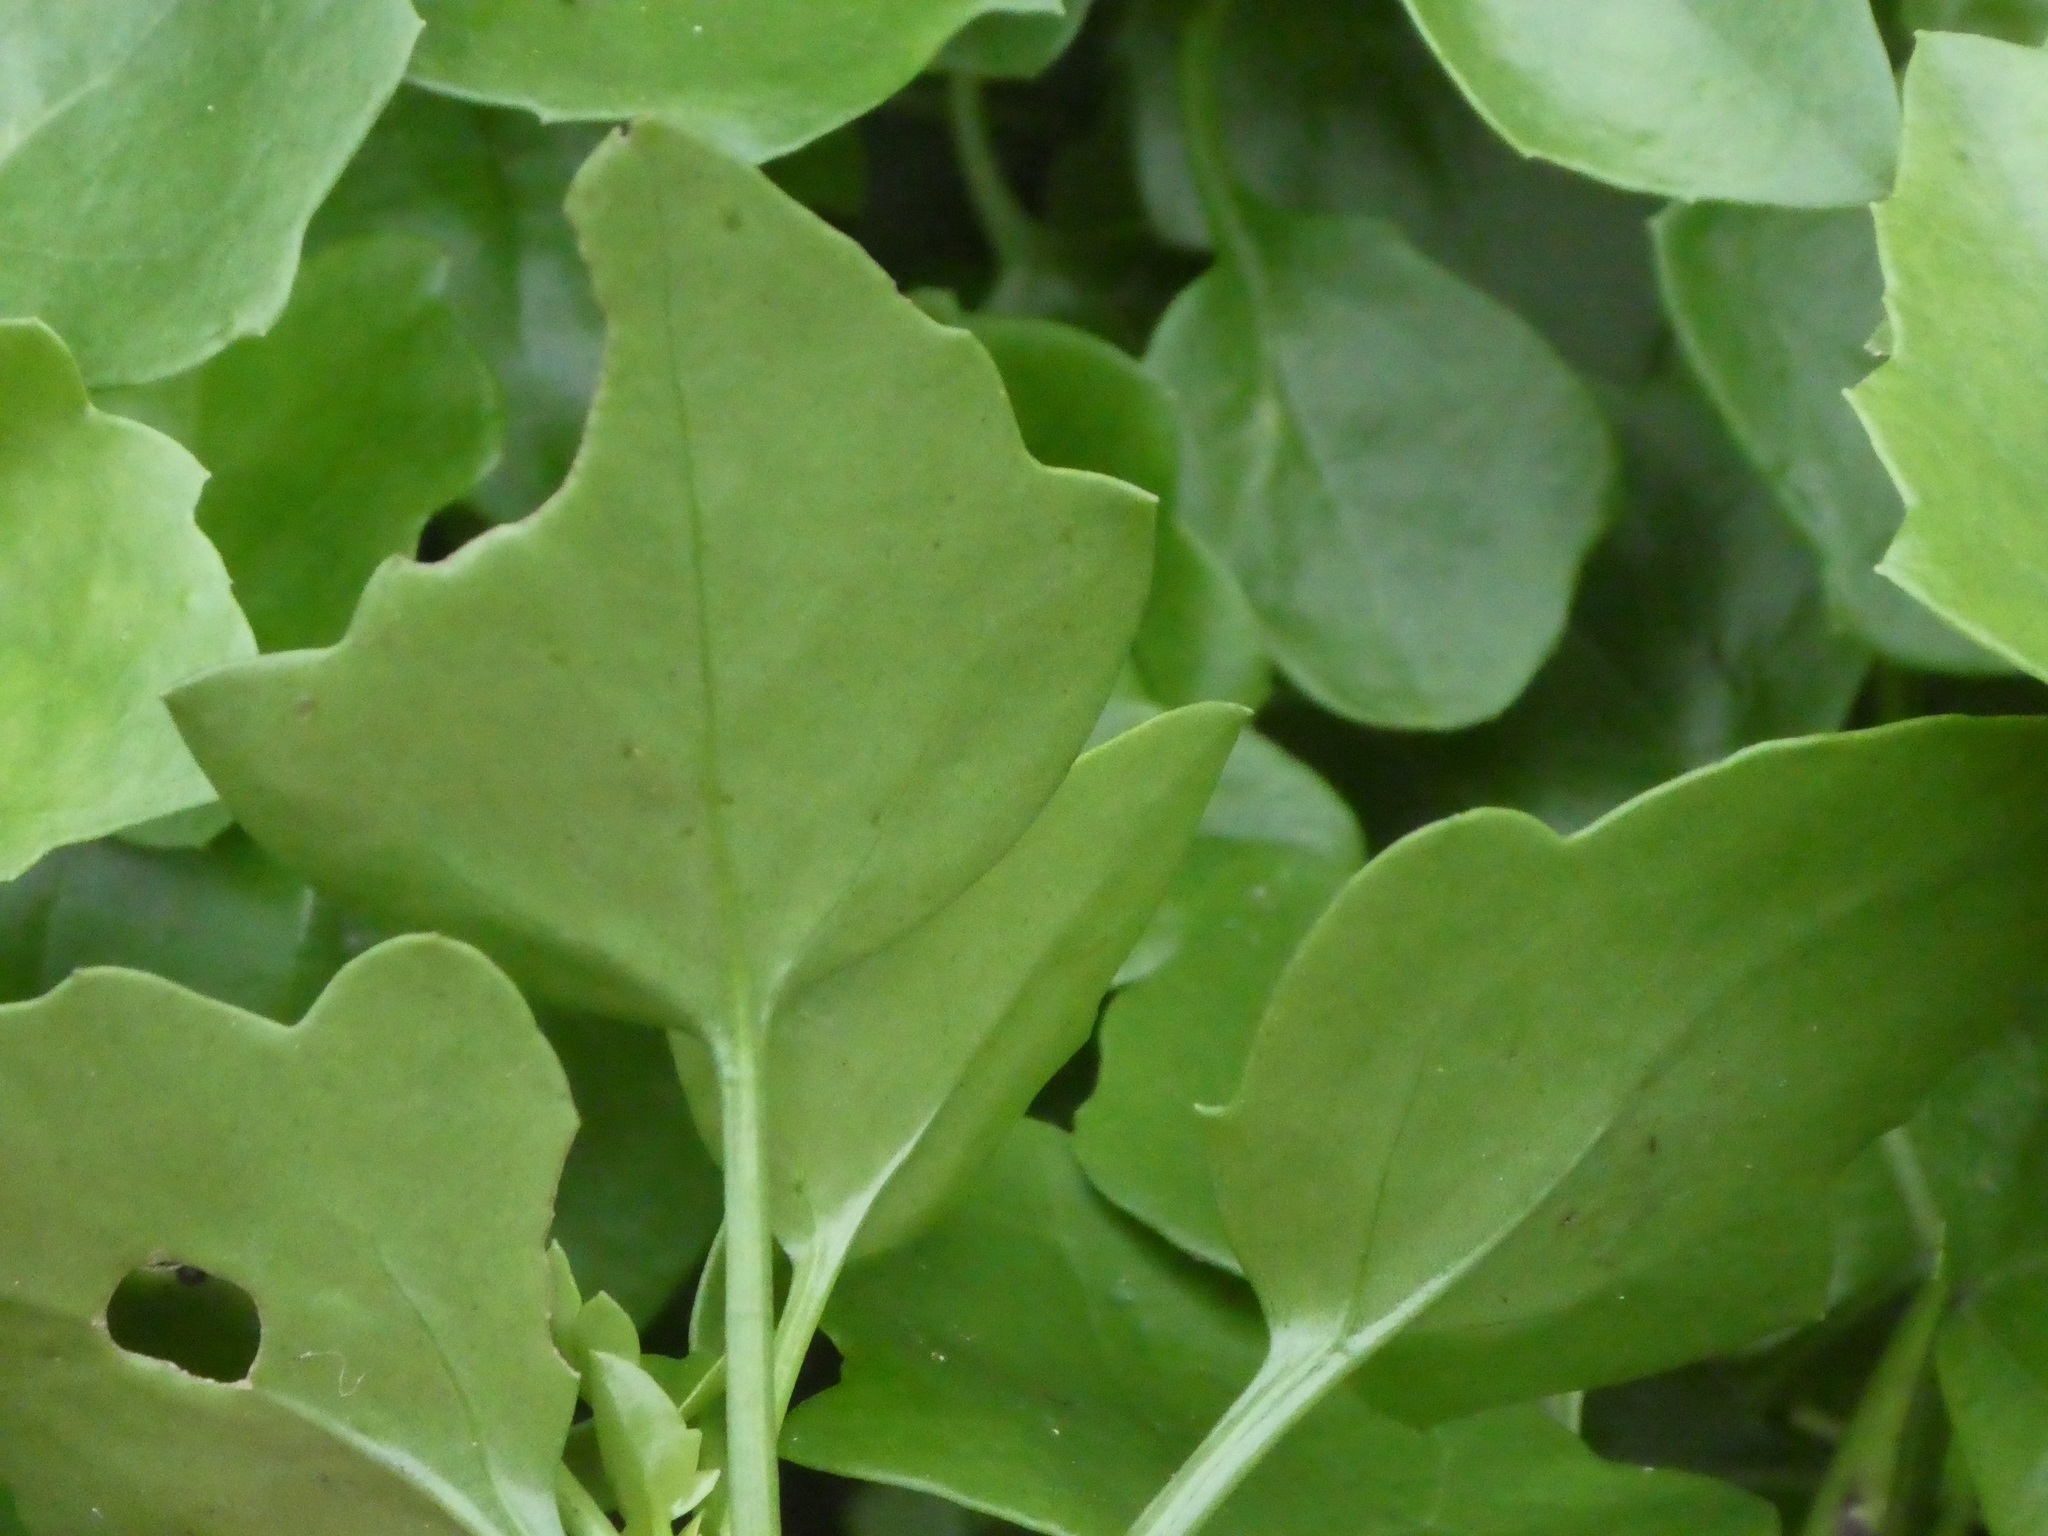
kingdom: Plantae
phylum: Tracheophyta
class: Magnoliopsida
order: Asterales
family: Asteraceae
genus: Senecio
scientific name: Senecio angulatus
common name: Climbing groundsel
